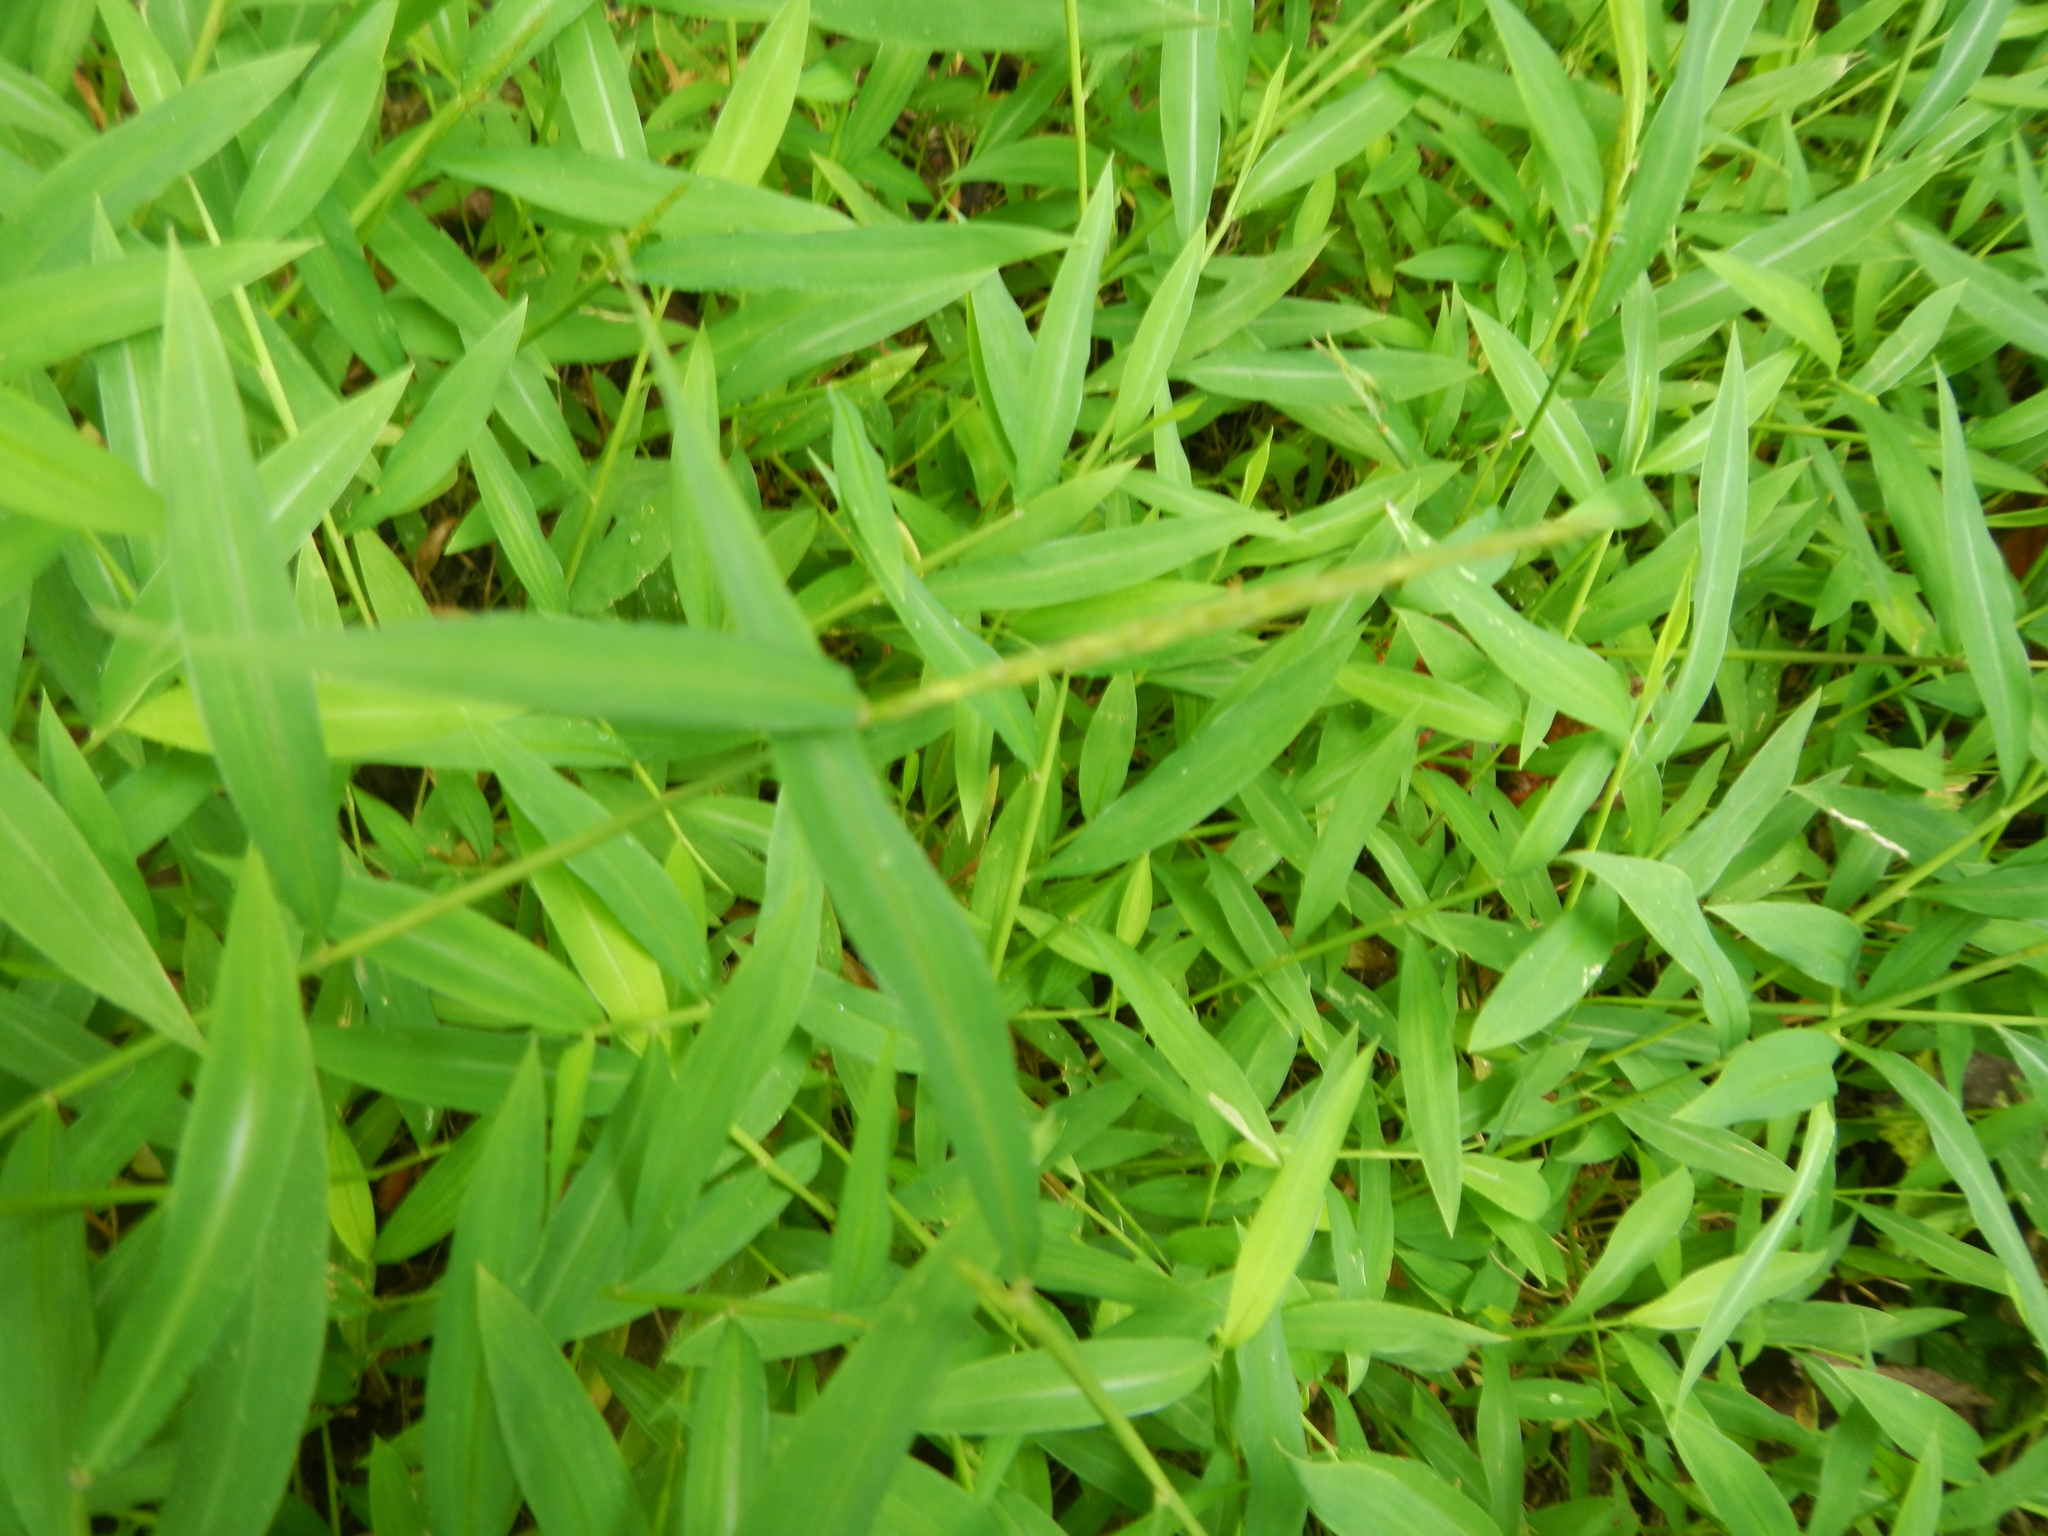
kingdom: Plantae
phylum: Tracheophyta
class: Liliopsida
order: Poales
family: Poaceae
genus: Microstegium
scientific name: Microstegium vimineum
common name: Japanese stiltgrass
